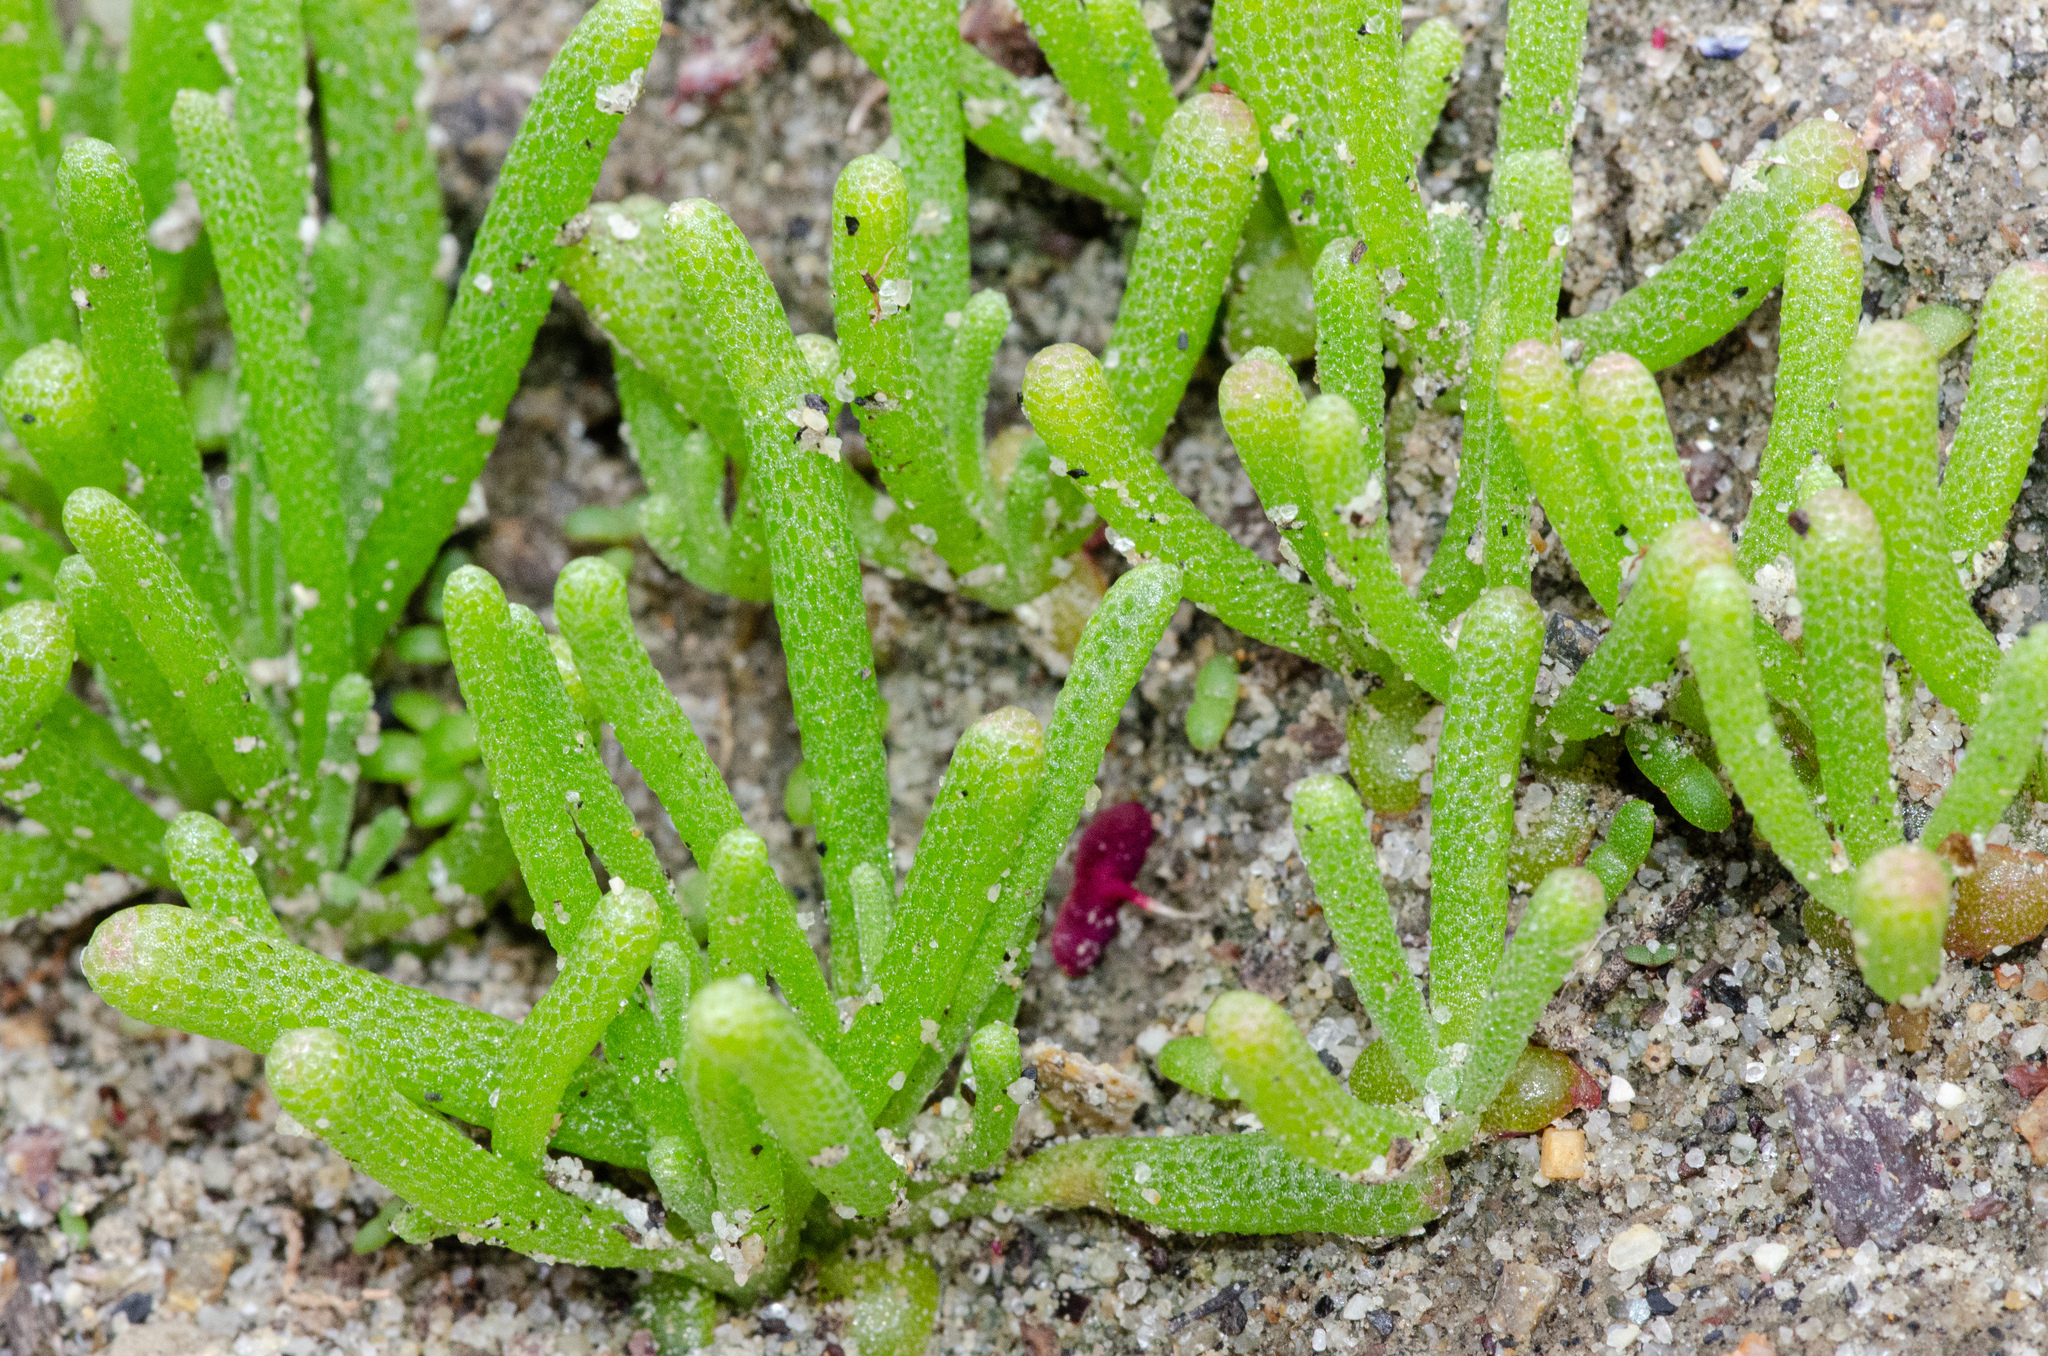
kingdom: Plantae
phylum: Tracheophyta
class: Magnoliopsida
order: Caryophyllales
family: Aizoaceae
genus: Mesembryanthemum
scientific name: Mesembryanthemum nodiflorum
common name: Slenderleaf iceplant
